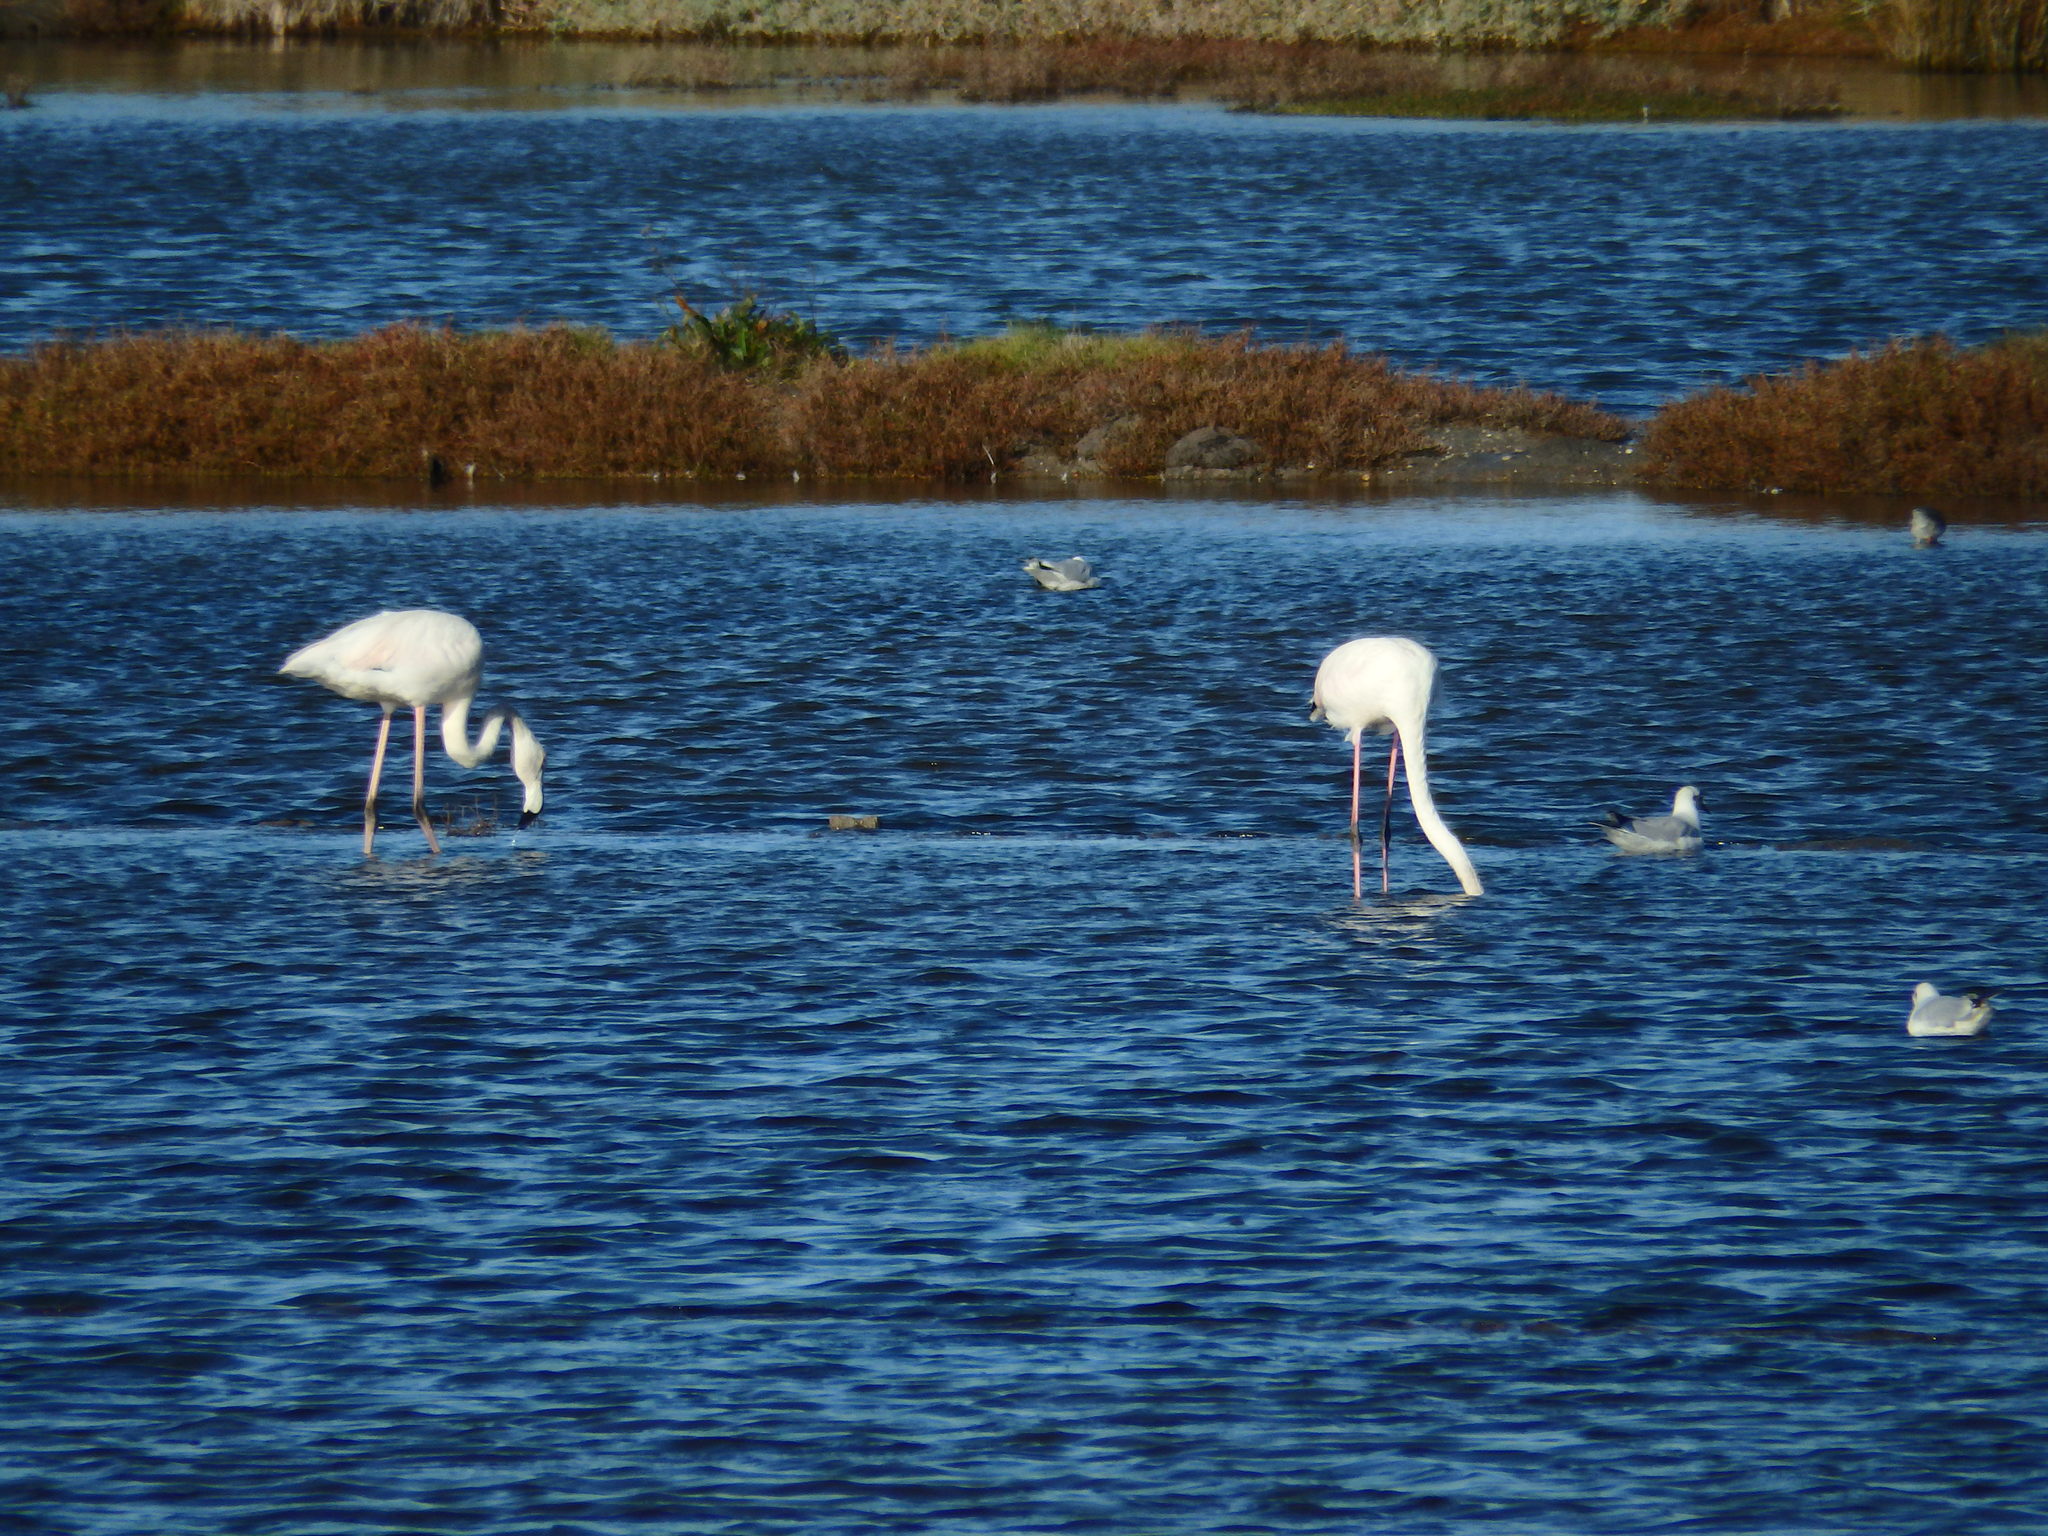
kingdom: Animalia
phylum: Chordata
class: Aves
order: Phoenicopteriformes
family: Phoenicopteridae
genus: Phoenicopterus
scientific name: Phoenicopterus roseus
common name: Greater flamingo
